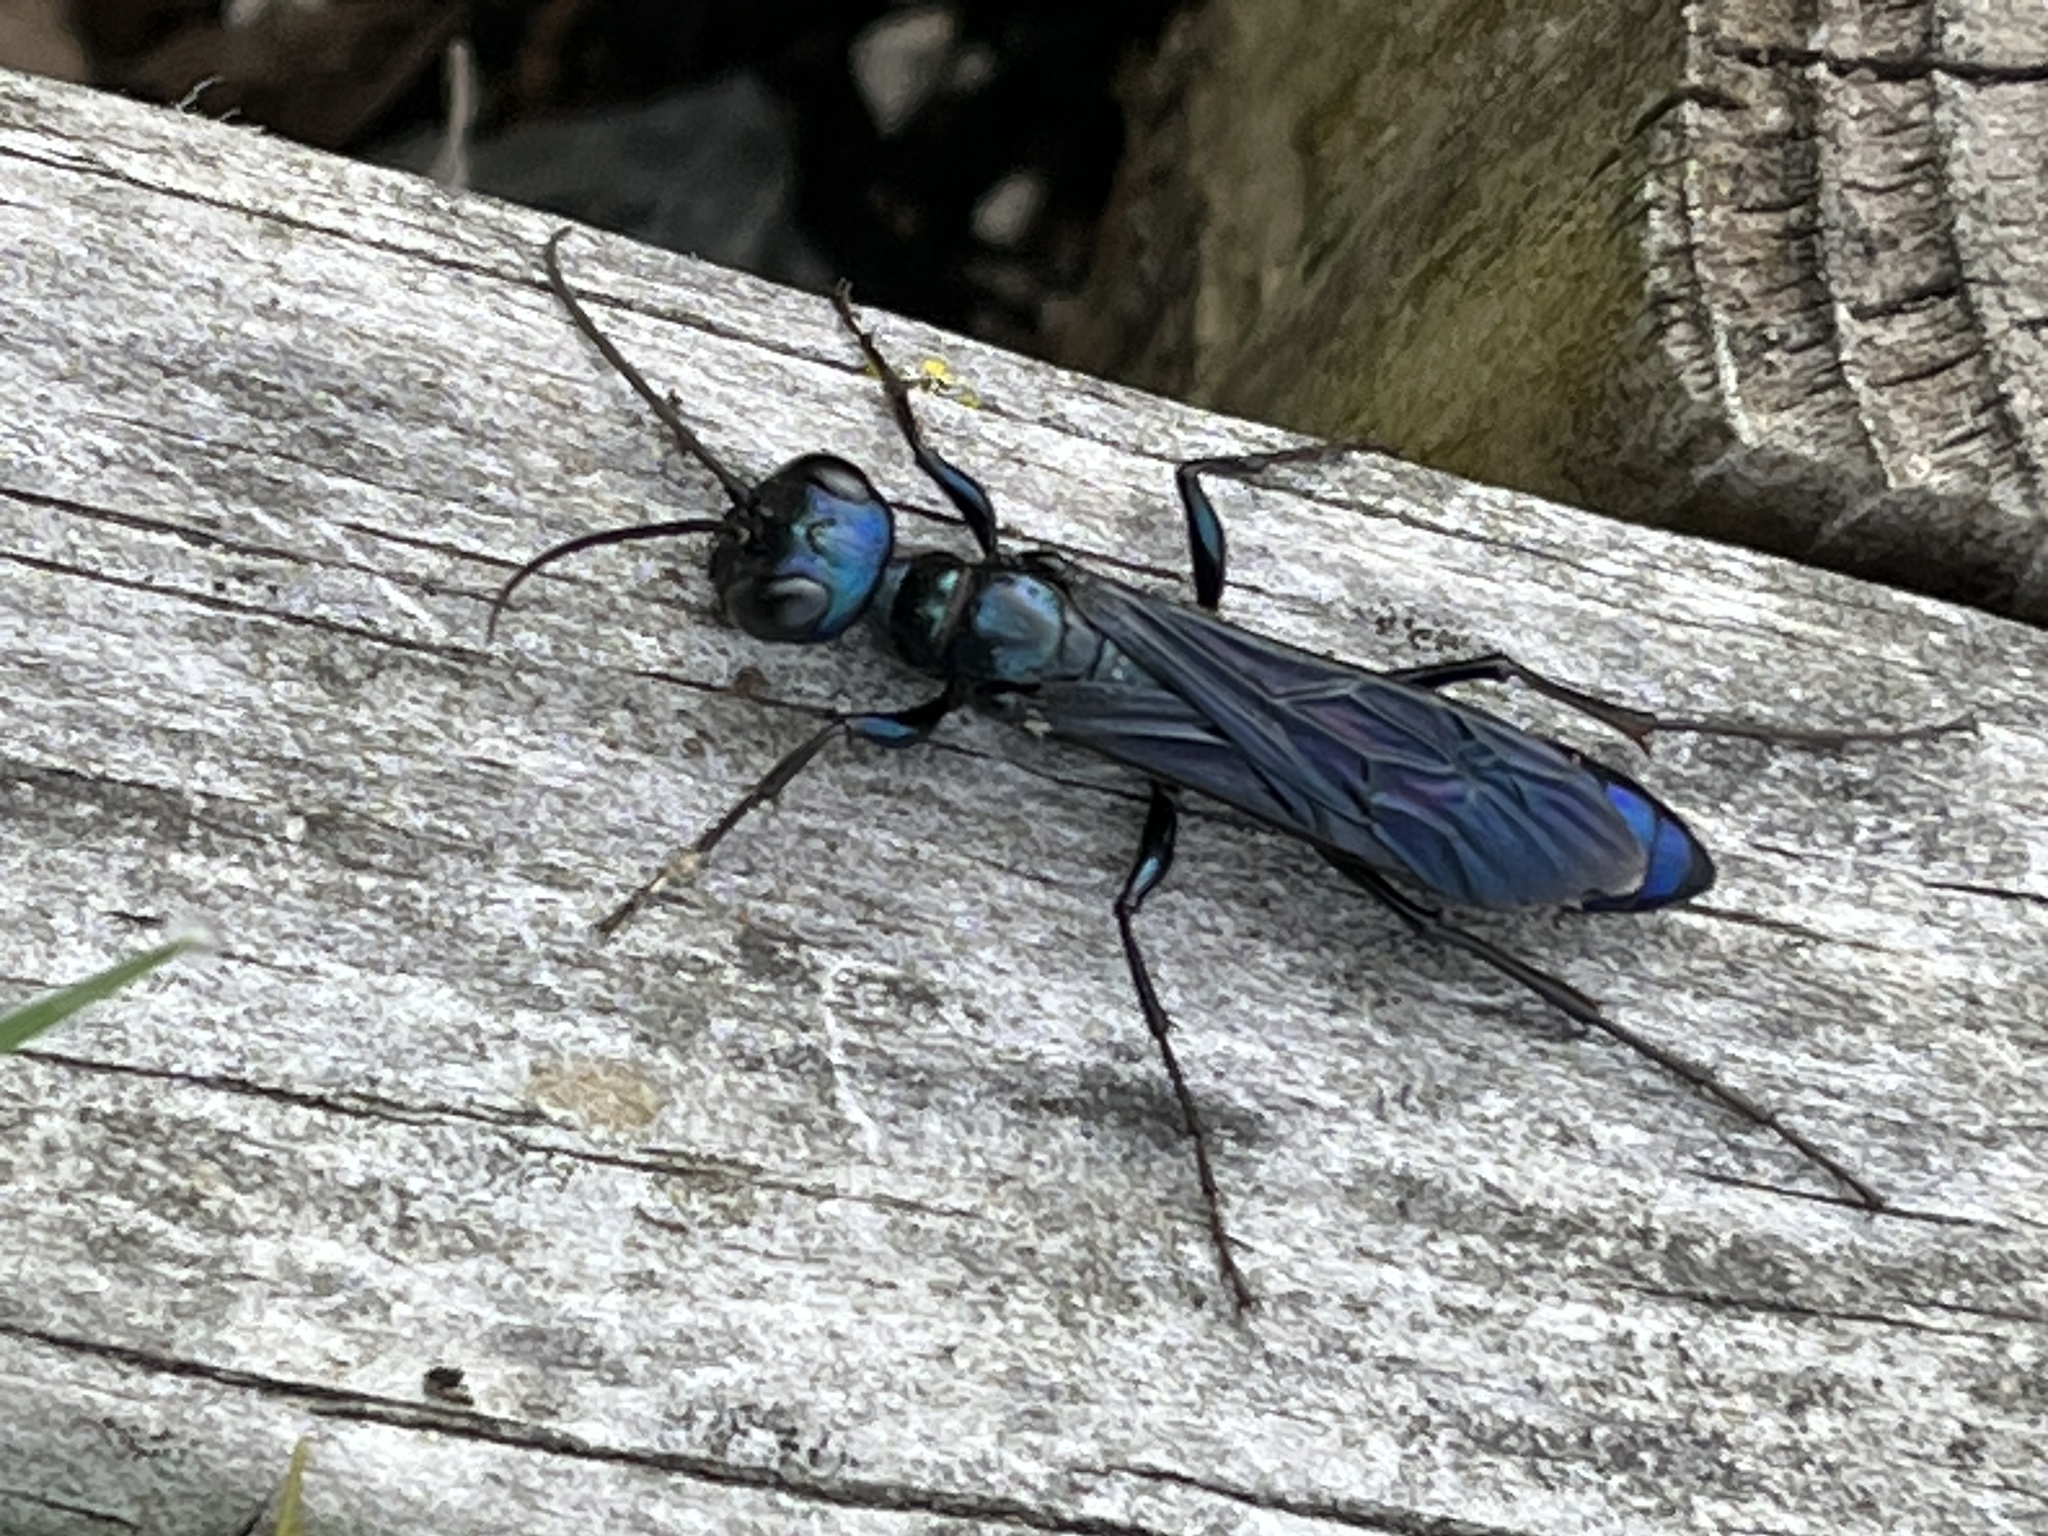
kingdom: Animalia
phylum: Arthropoda
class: Insecta
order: Hymenoptera
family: Sphecidae
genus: Chlorion
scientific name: Chlorion aerarium
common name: Steel-blue cricket hunter
